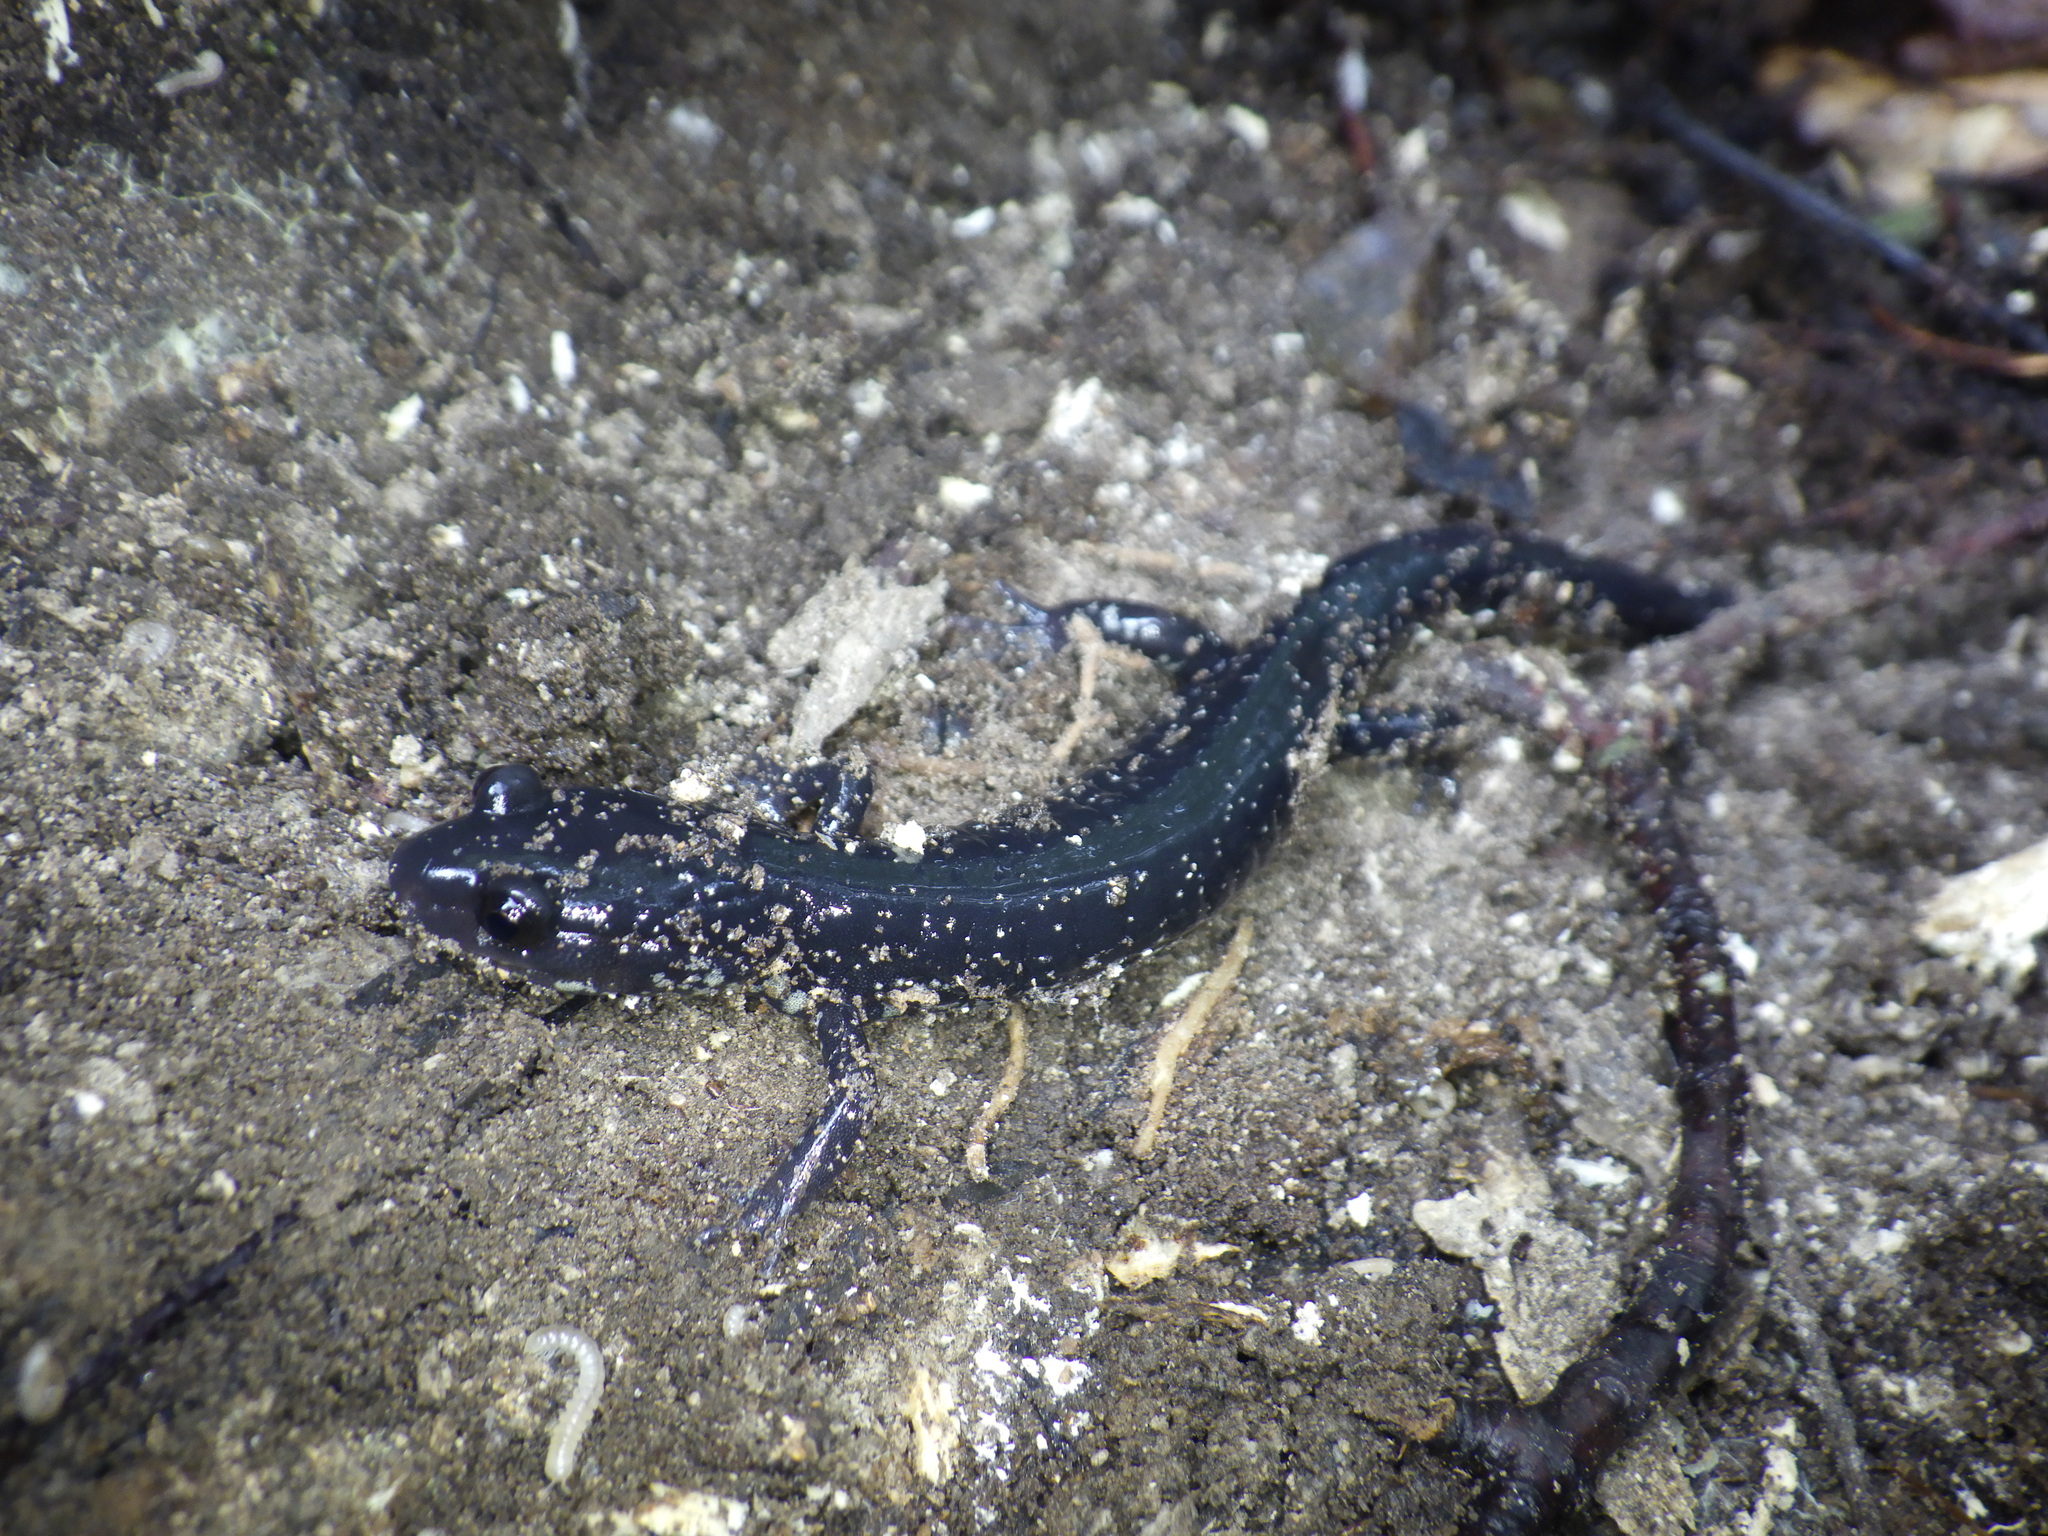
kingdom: Animalia
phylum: Chordata
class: Amphibia
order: Caudata
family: Plethodontidae
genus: Plethodon
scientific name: Plethodon chlorobryonis
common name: Atlantic coast slimy salamander
